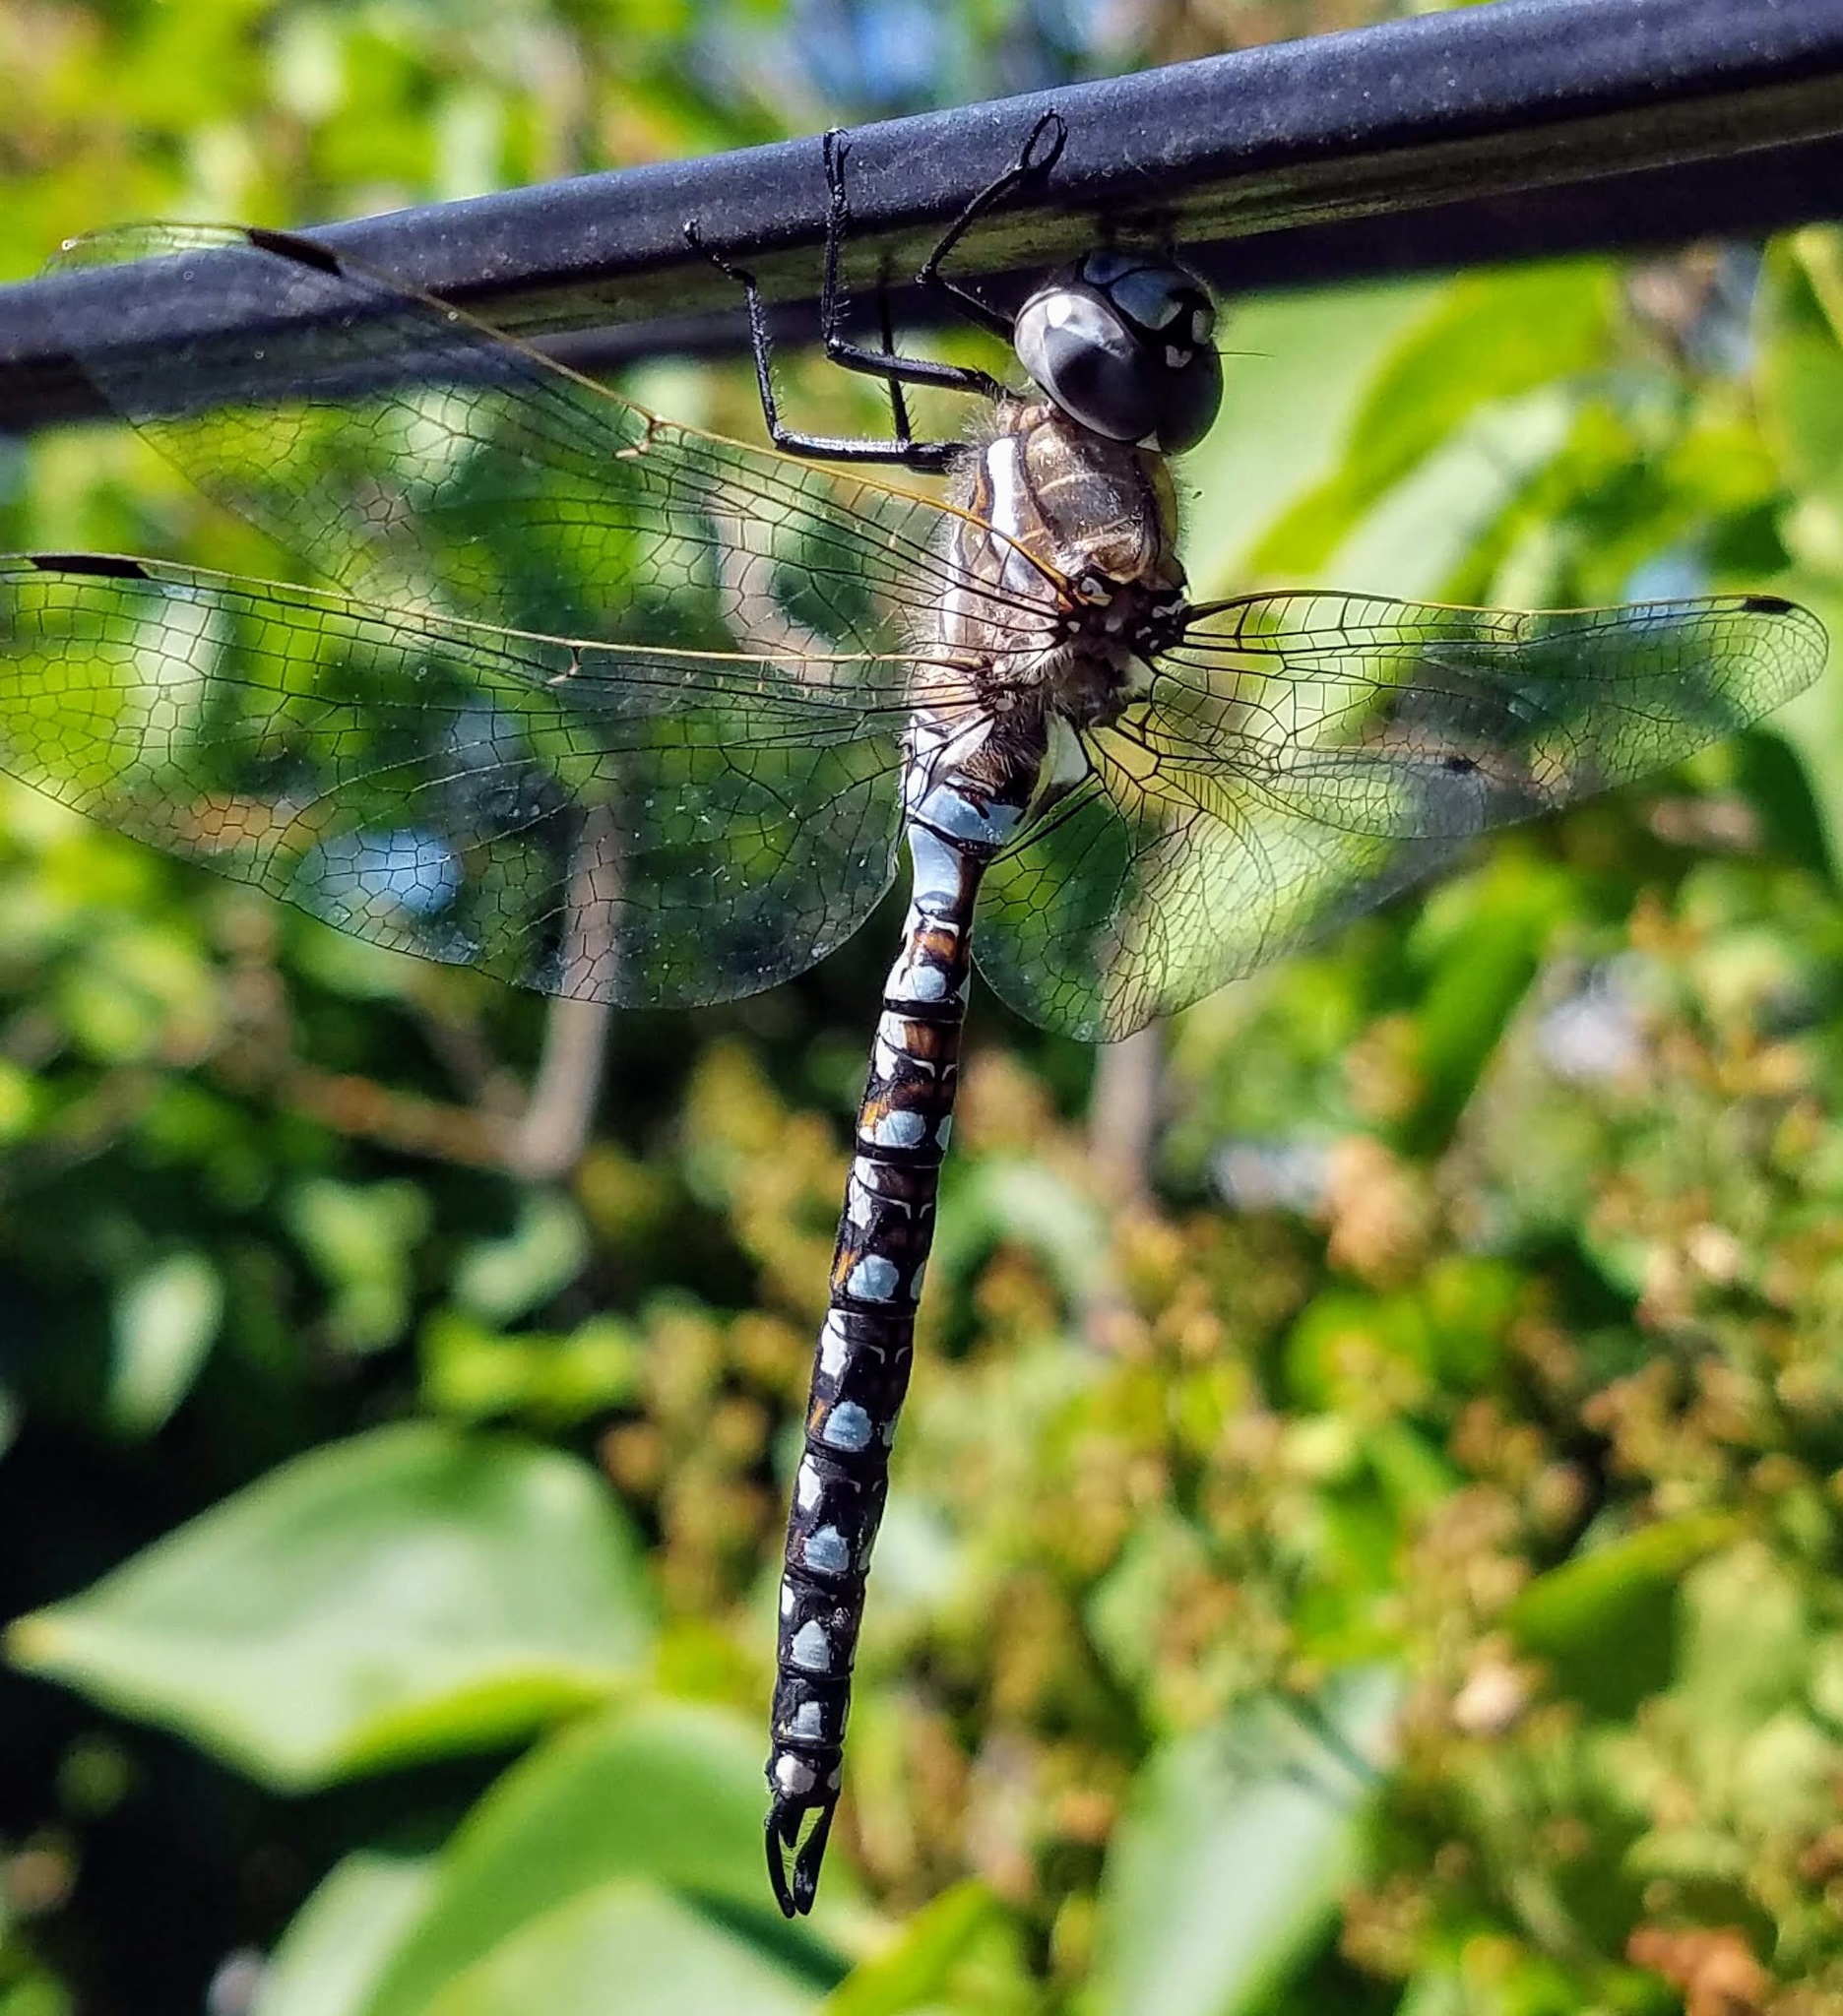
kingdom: Animalia
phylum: Arthropoda
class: Insecta
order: Odonata
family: Aeshnidae
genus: Rhionaeschna
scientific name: Rhionaeschna californica
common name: California darner
